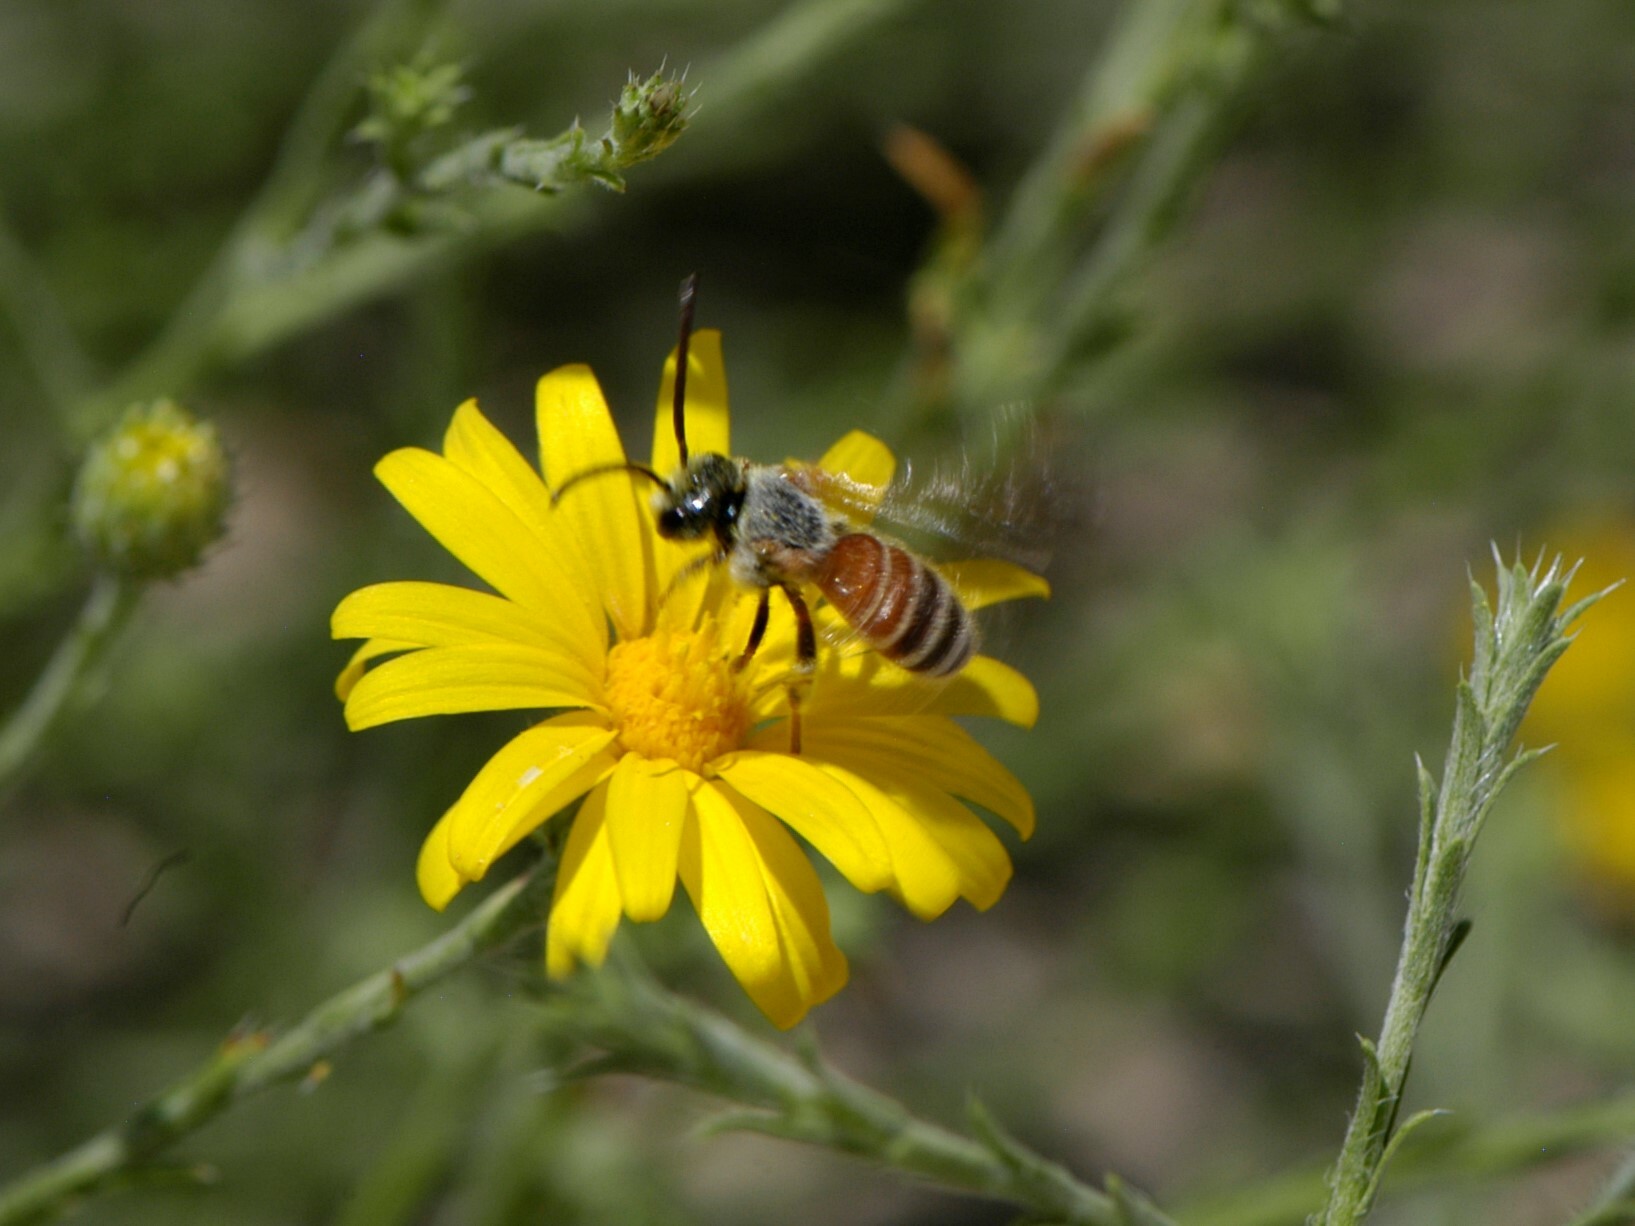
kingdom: Animalia
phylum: Arthropoda
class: Insecta
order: Hymenoptera
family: Halictidae
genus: Dieunomia
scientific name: Dieunomia nevadensis
